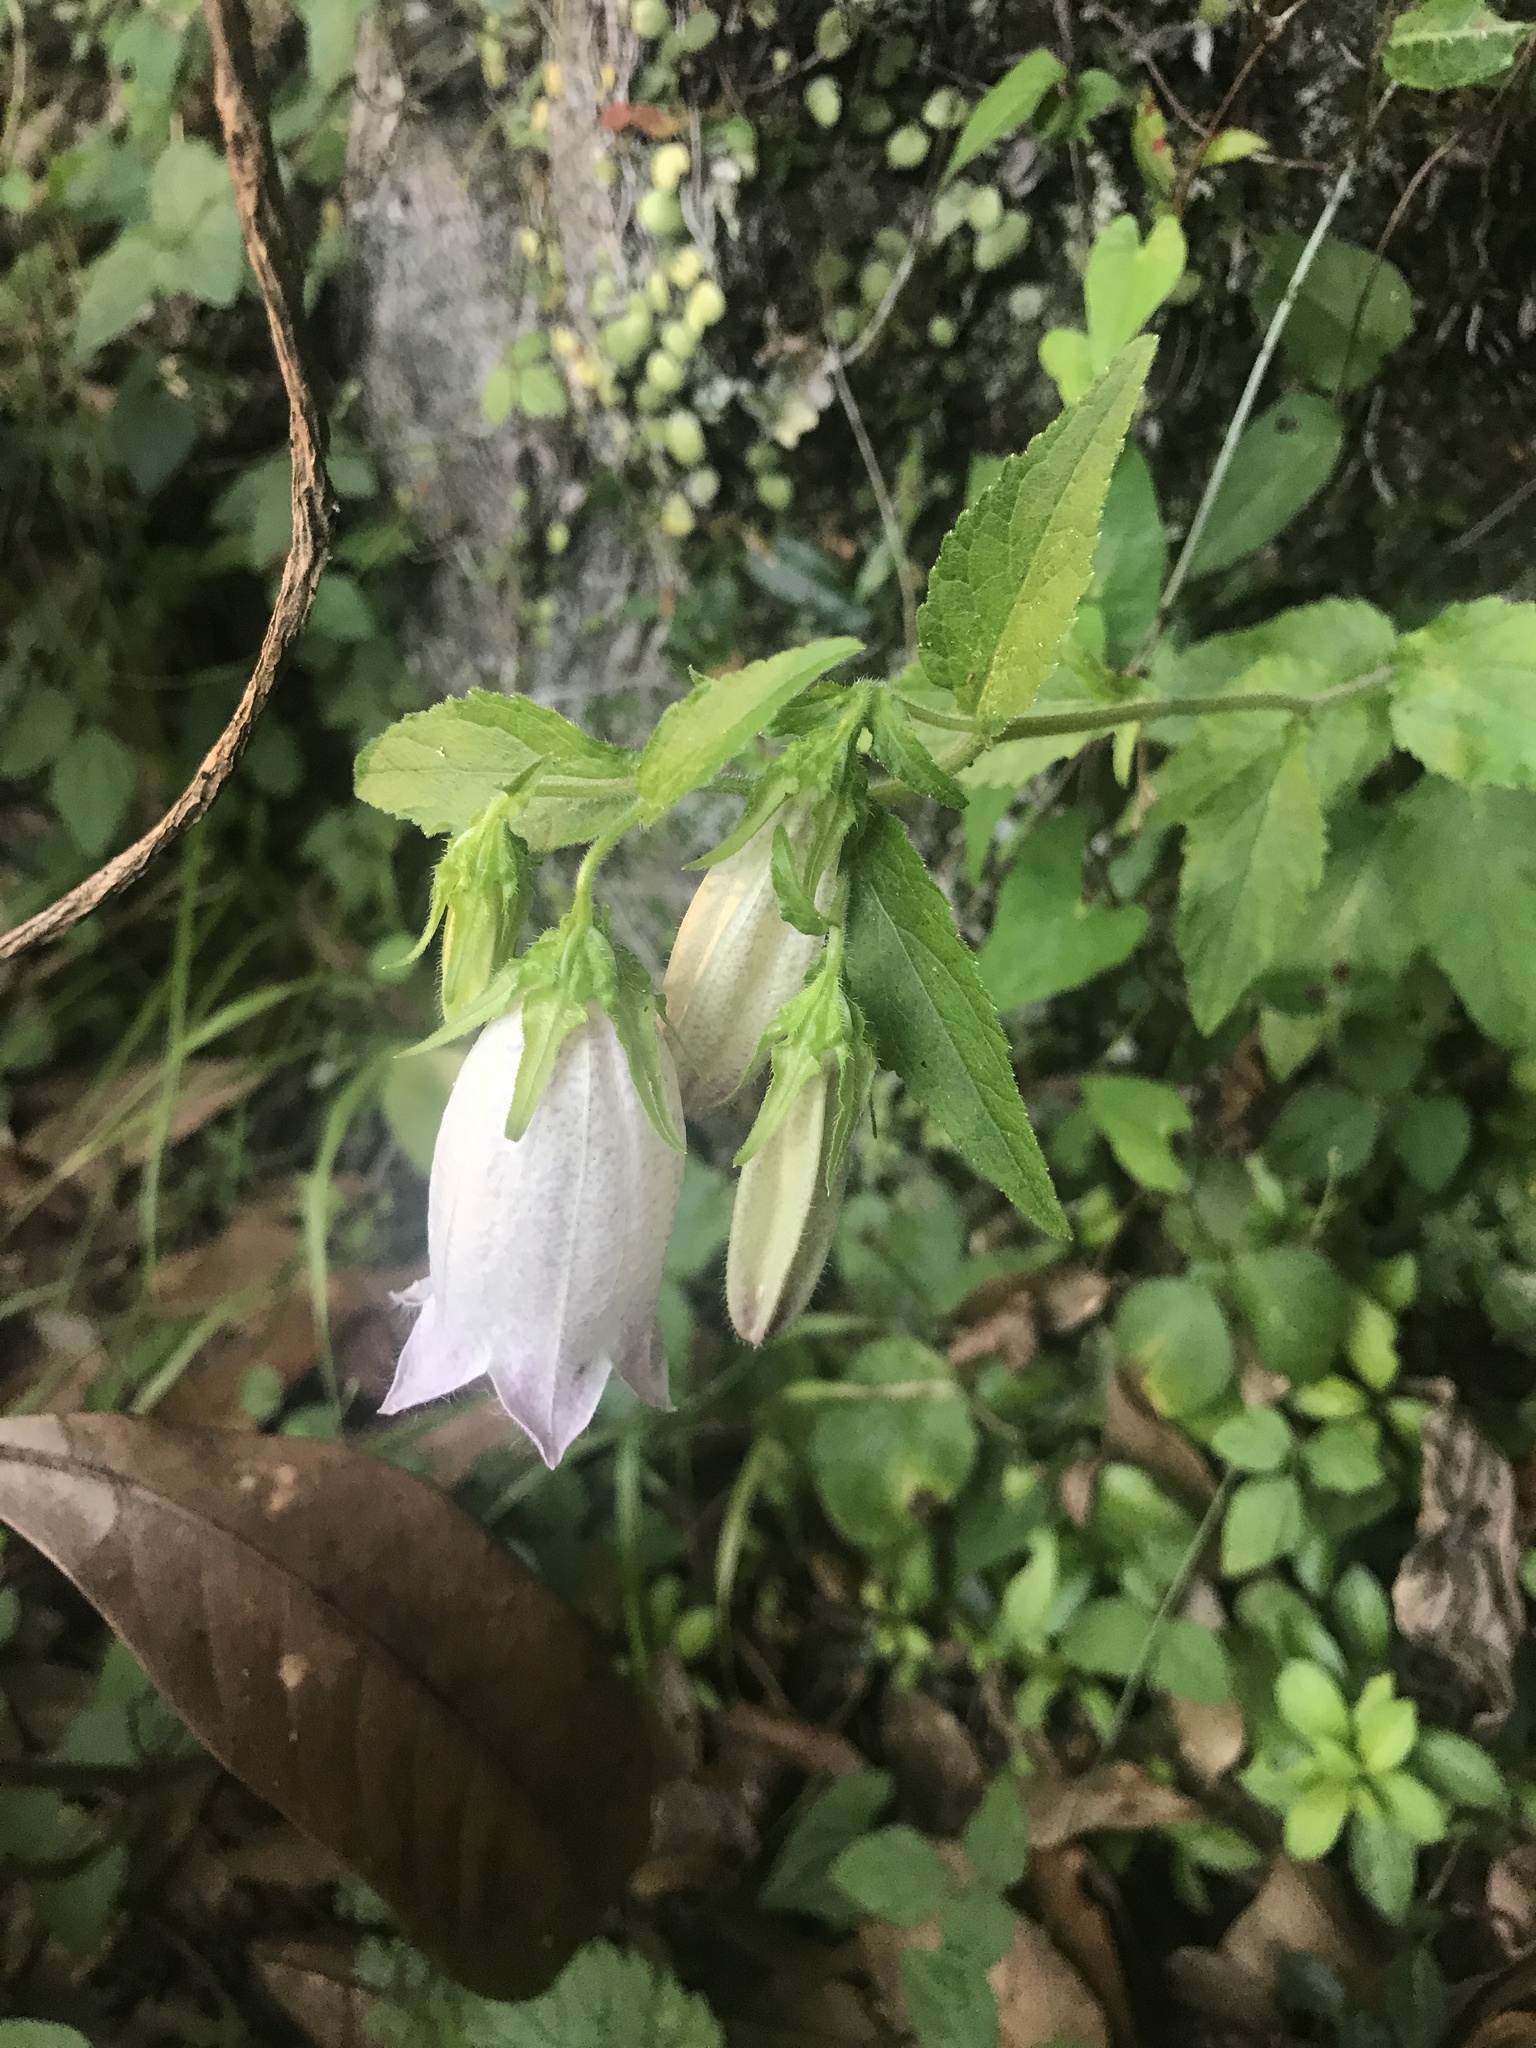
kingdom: Plantae
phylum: Tracheophyta
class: Magnoliopsida
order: Asterales
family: Campanulaceae
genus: Campanula
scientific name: Campanula punctata
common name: Spotted bellflower
